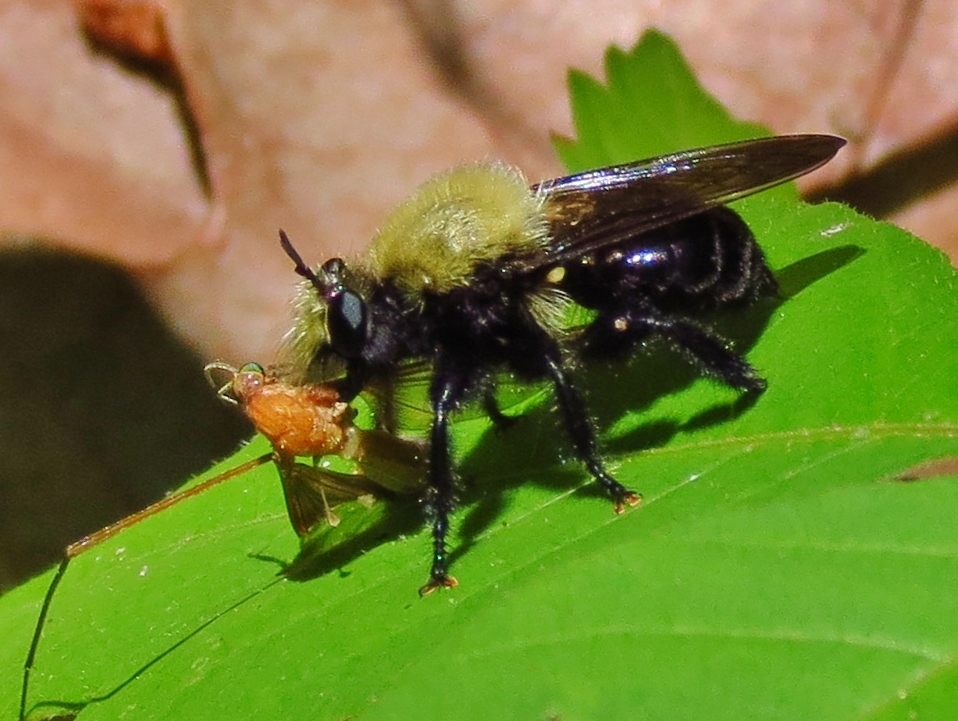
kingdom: Animalia
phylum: Arthropoda
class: Insecta
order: Diptera
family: Asilidae
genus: Laphria
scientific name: Laphria flavicollis
